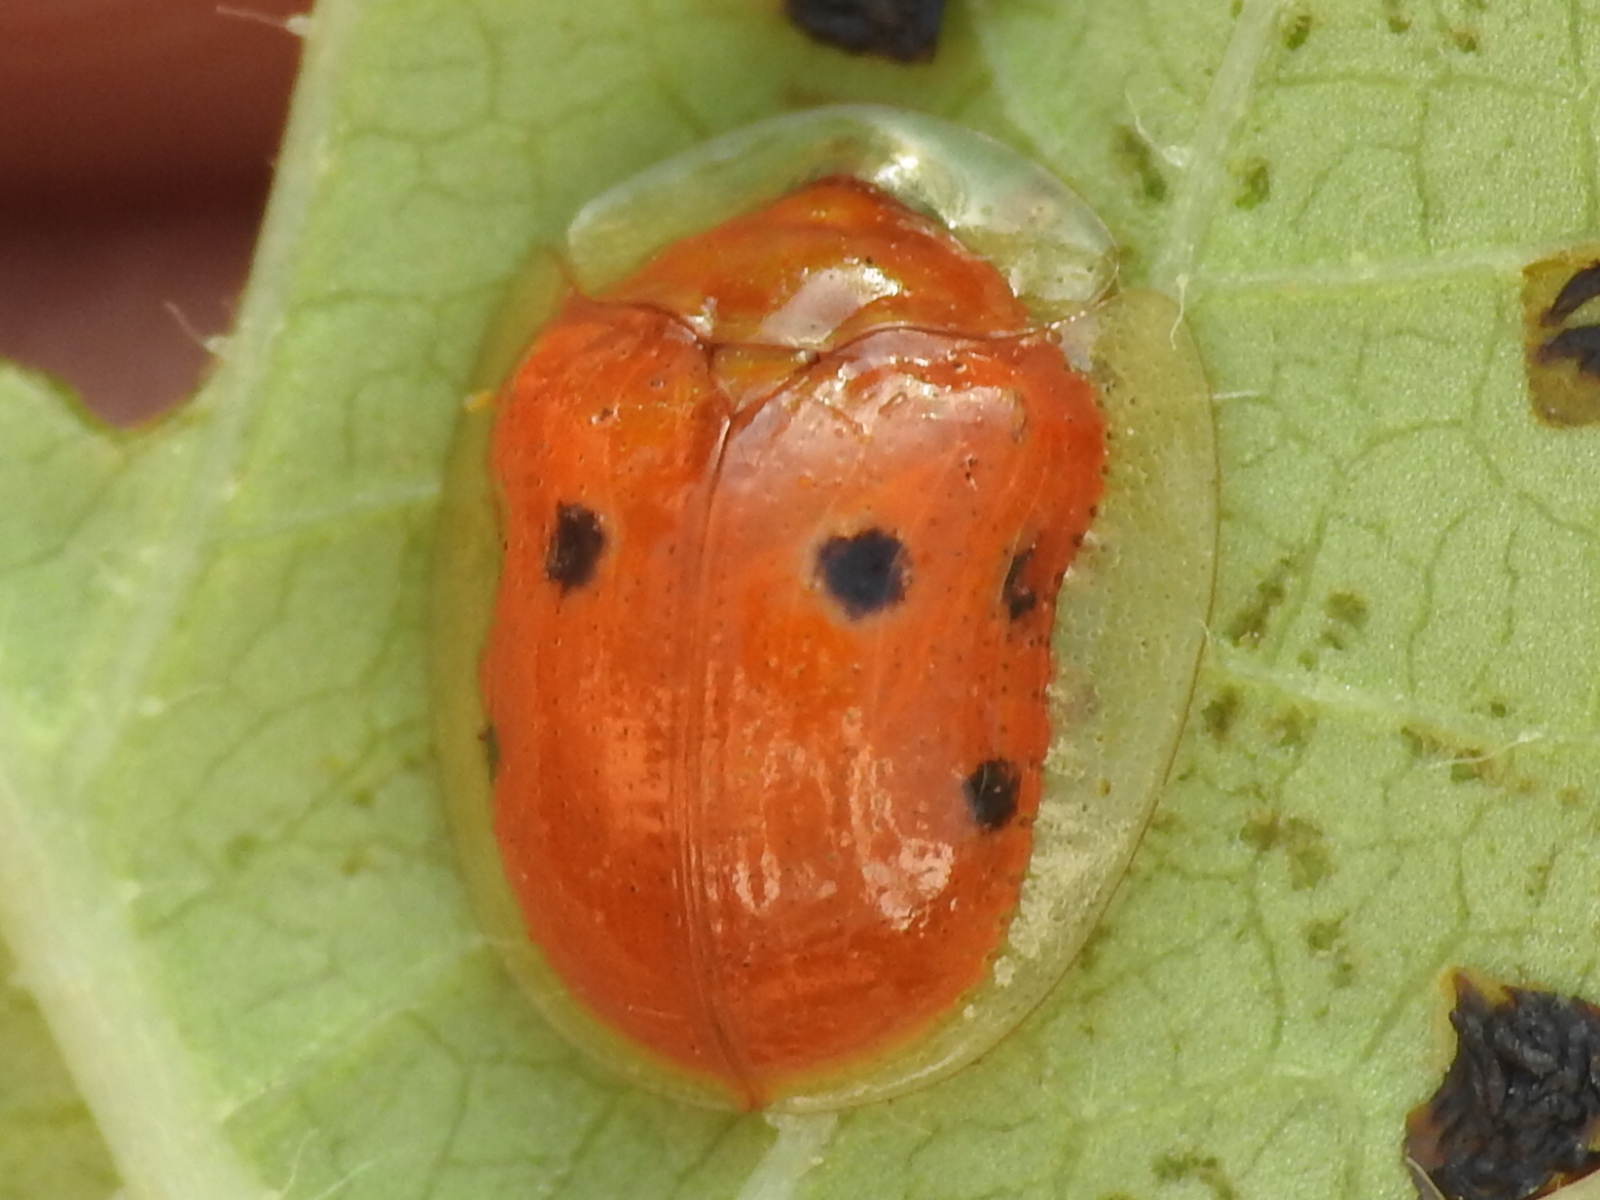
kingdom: Animalia
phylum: Arthropoda
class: Insecta
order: Coleoptera
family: Chrysomelidae
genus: Charidotella
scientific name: Charidotella sexpunctata
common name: Golden tortoise beetle
